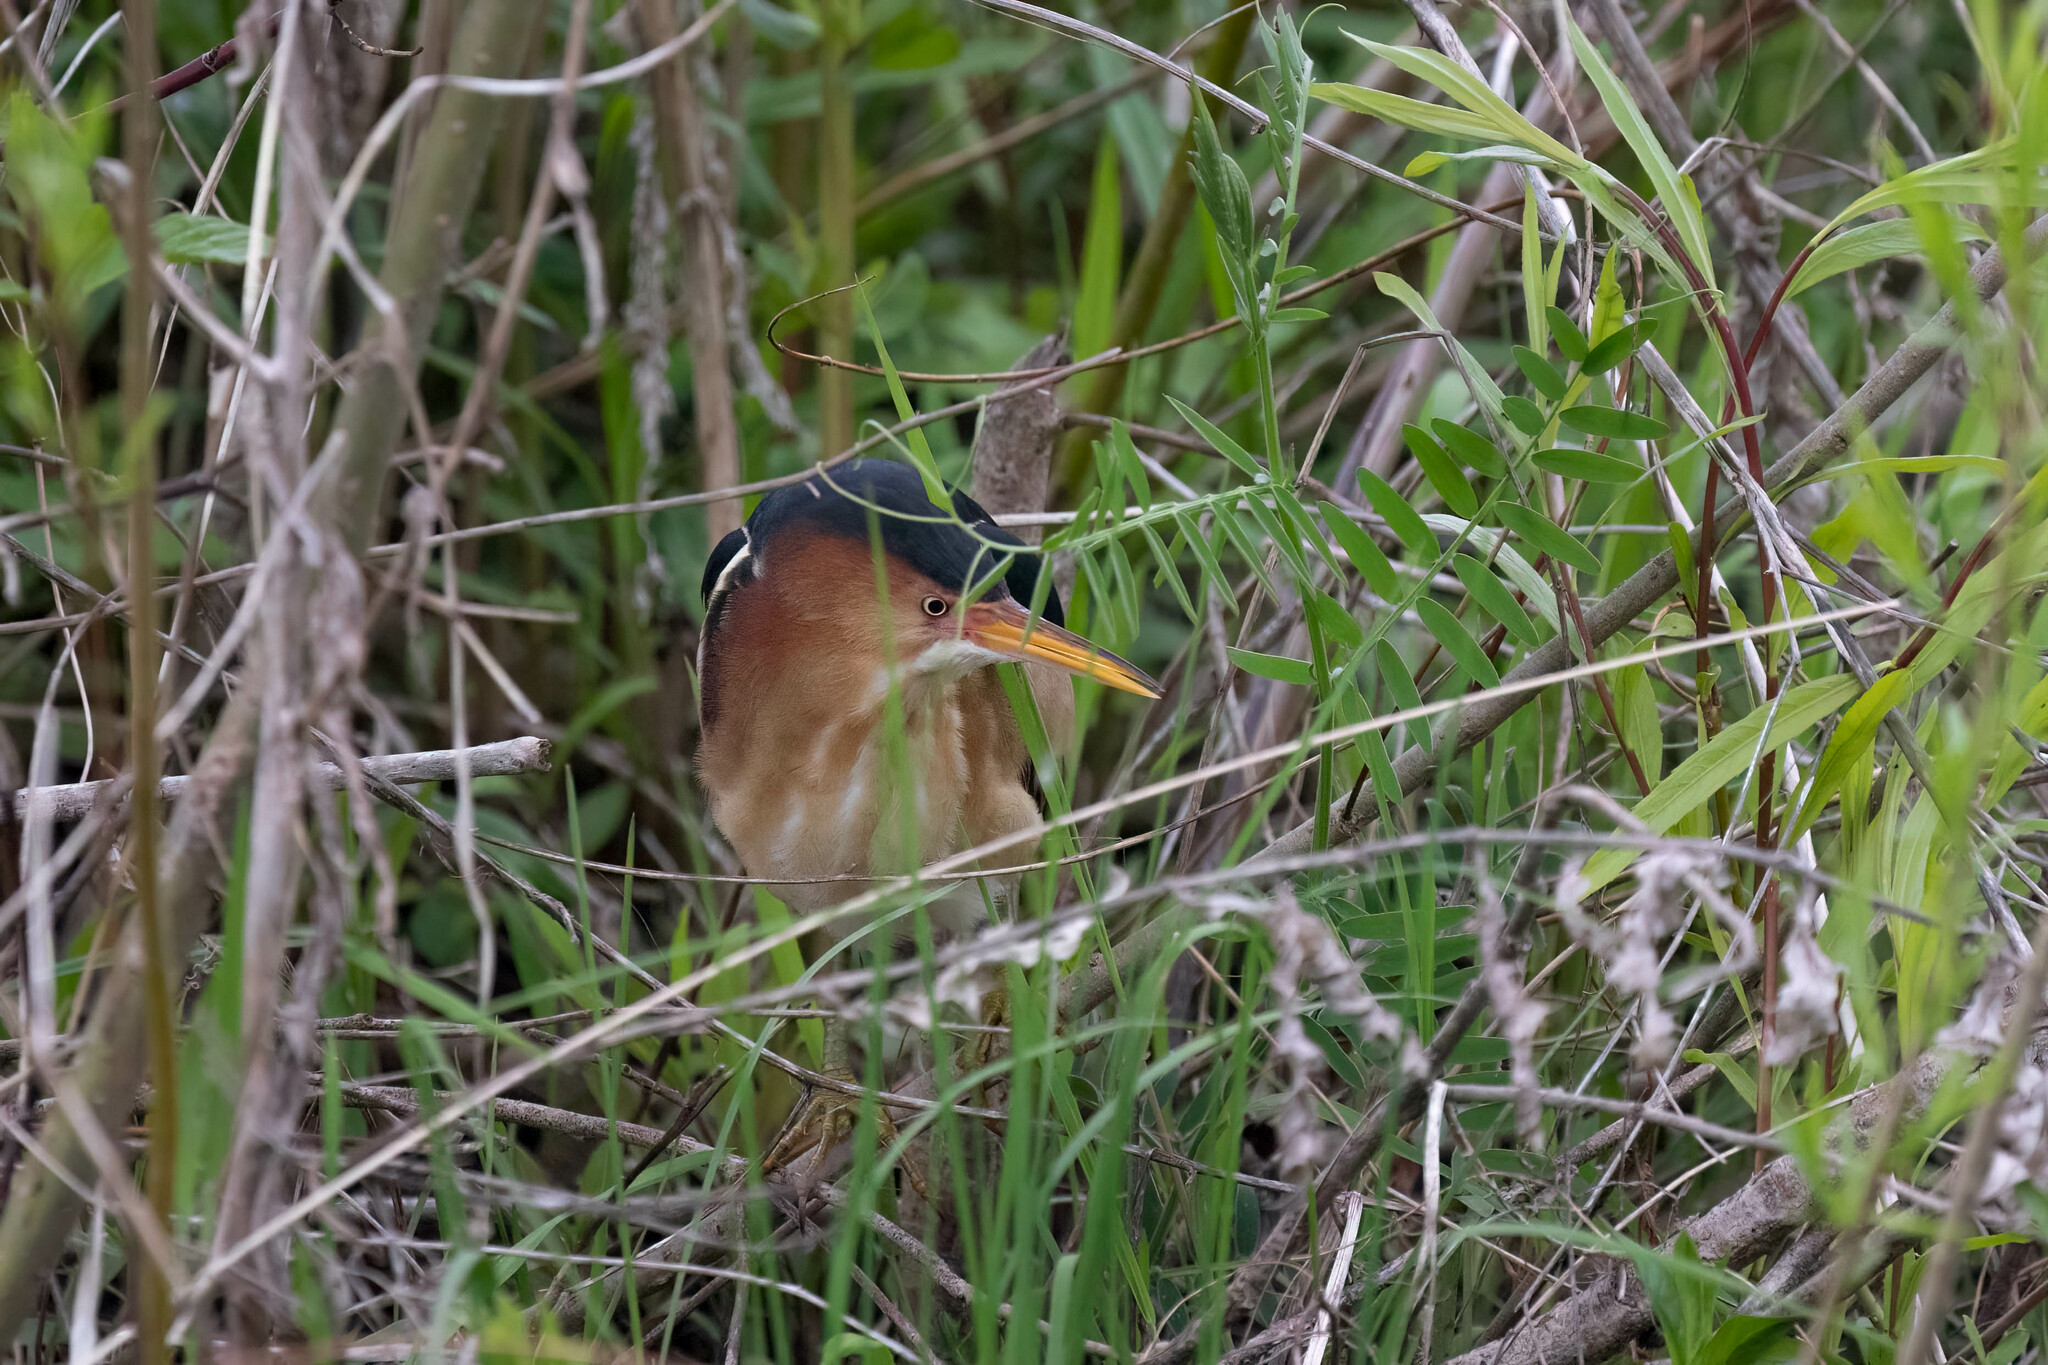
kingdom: Animalia
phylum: Chordata
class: Aves
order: Pelecaniformes
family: Ardeidae
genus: Ixobrychus
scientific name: Ixobrychus exilis
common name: Least bittern
